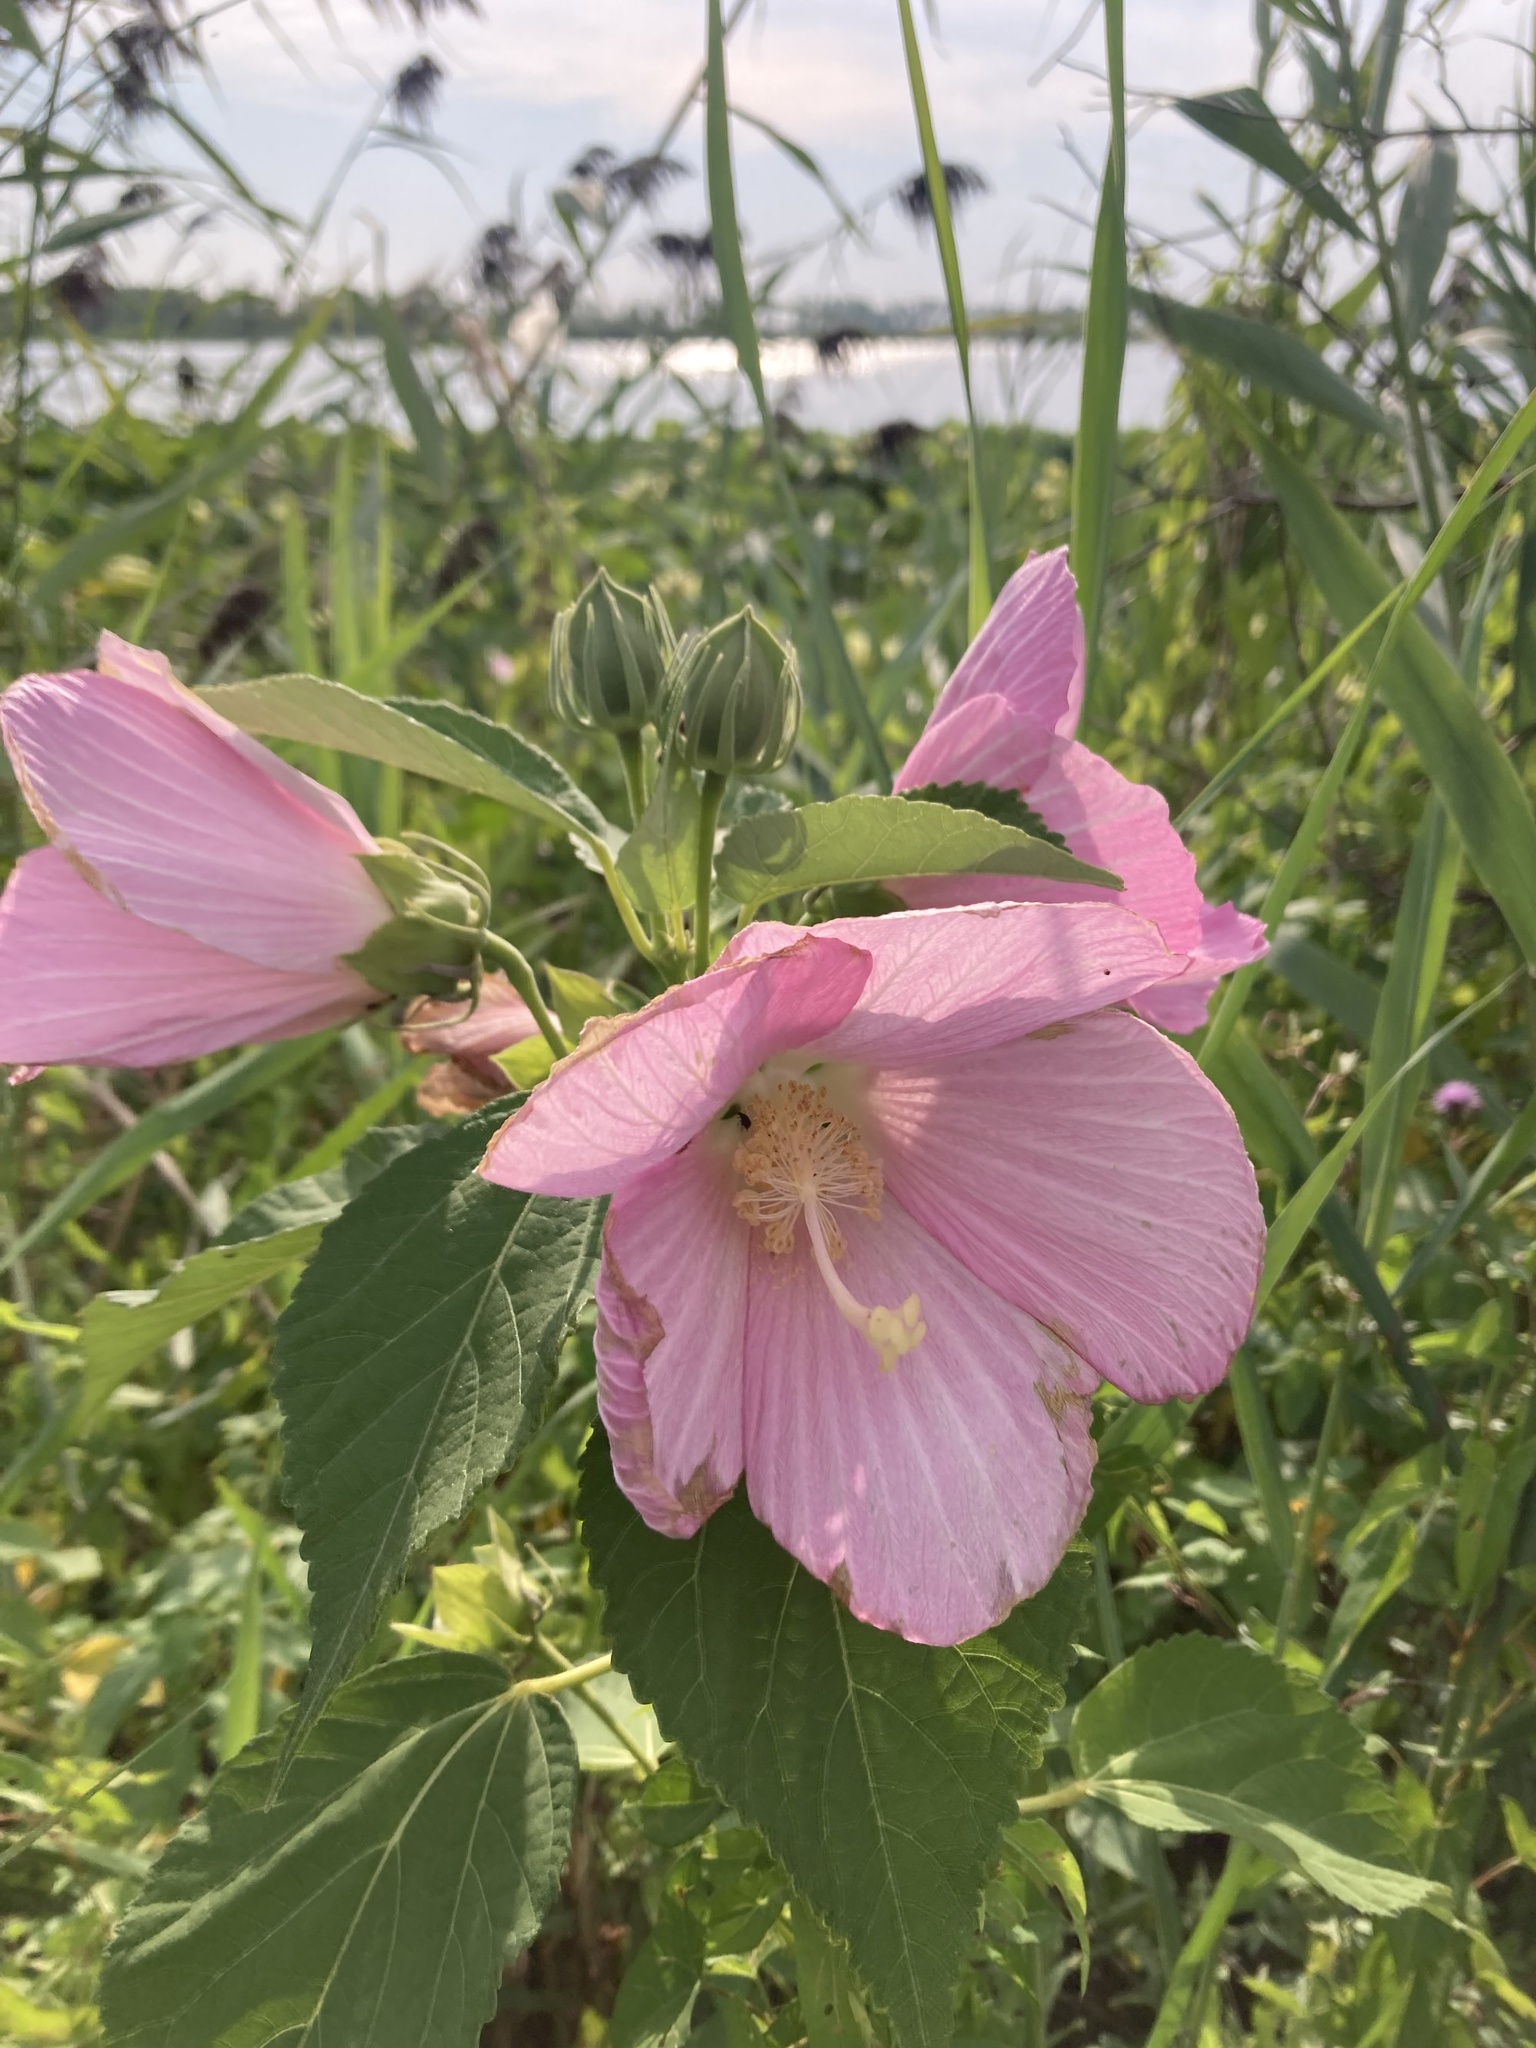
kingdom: Plantae
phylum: Tracheophyta
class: Magnoliopsida
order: Malvales
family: Malvaceae
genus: Hibiscus
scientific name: Hibiscus moscheutos
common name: Common rose-mallow
